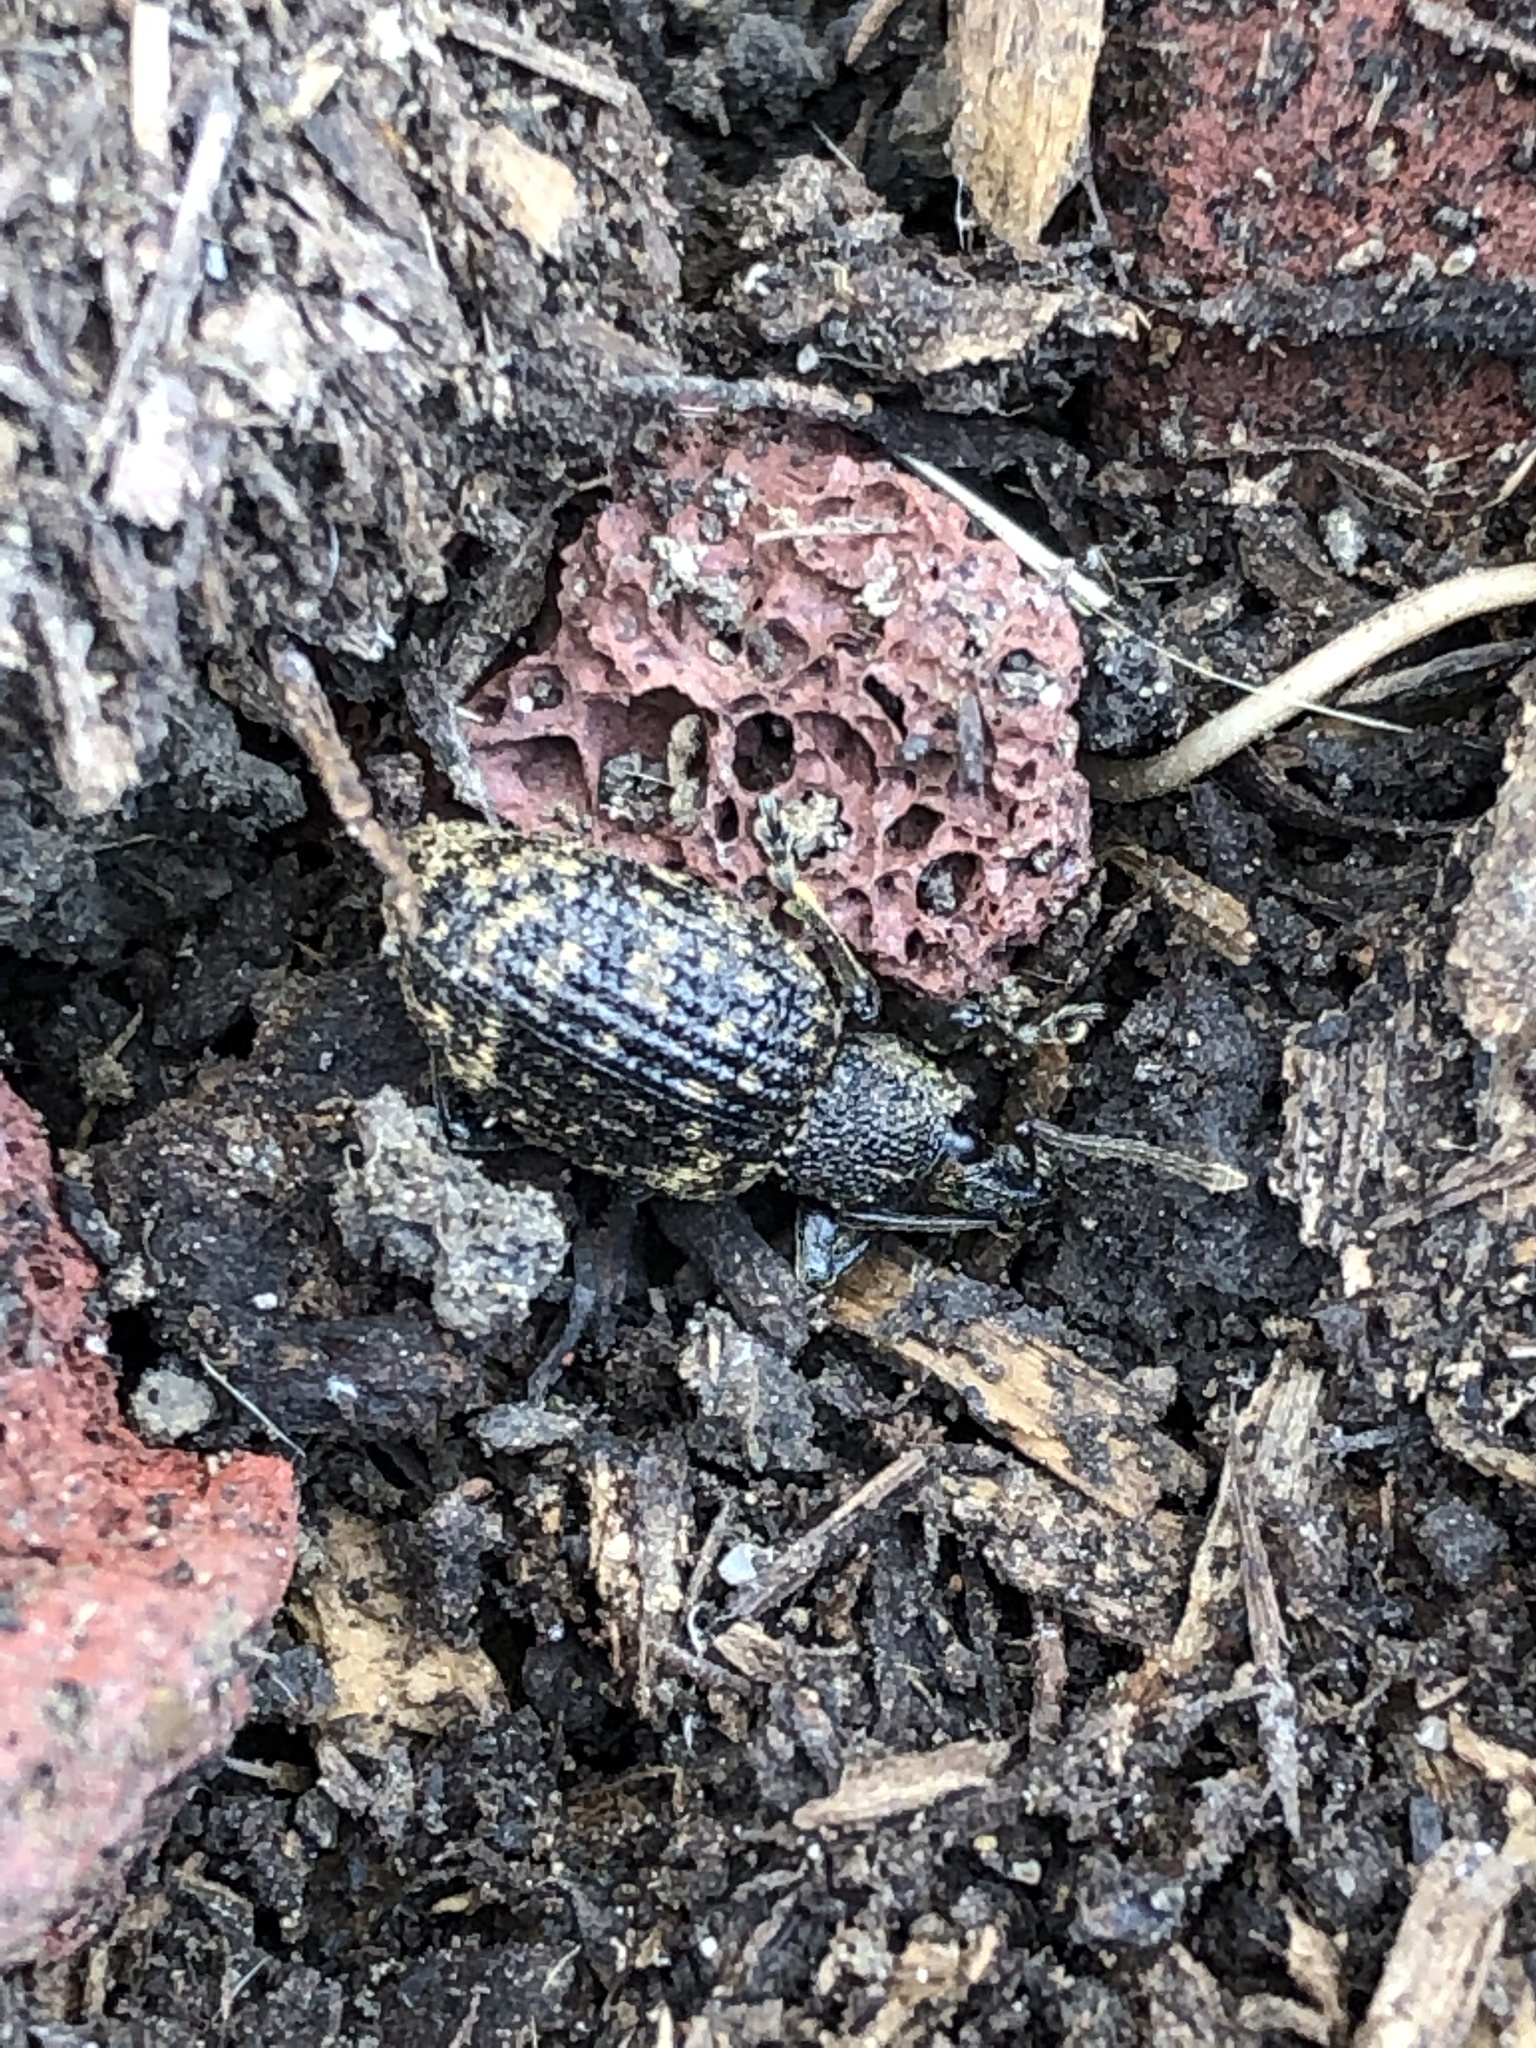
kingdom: Animalia
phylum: Arthropoda
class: Insecta
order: Coleoptera
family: Curculionidae
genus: Otiorhynchus
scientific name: Otiorhynchus sulcatus
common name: Black vine weevil
